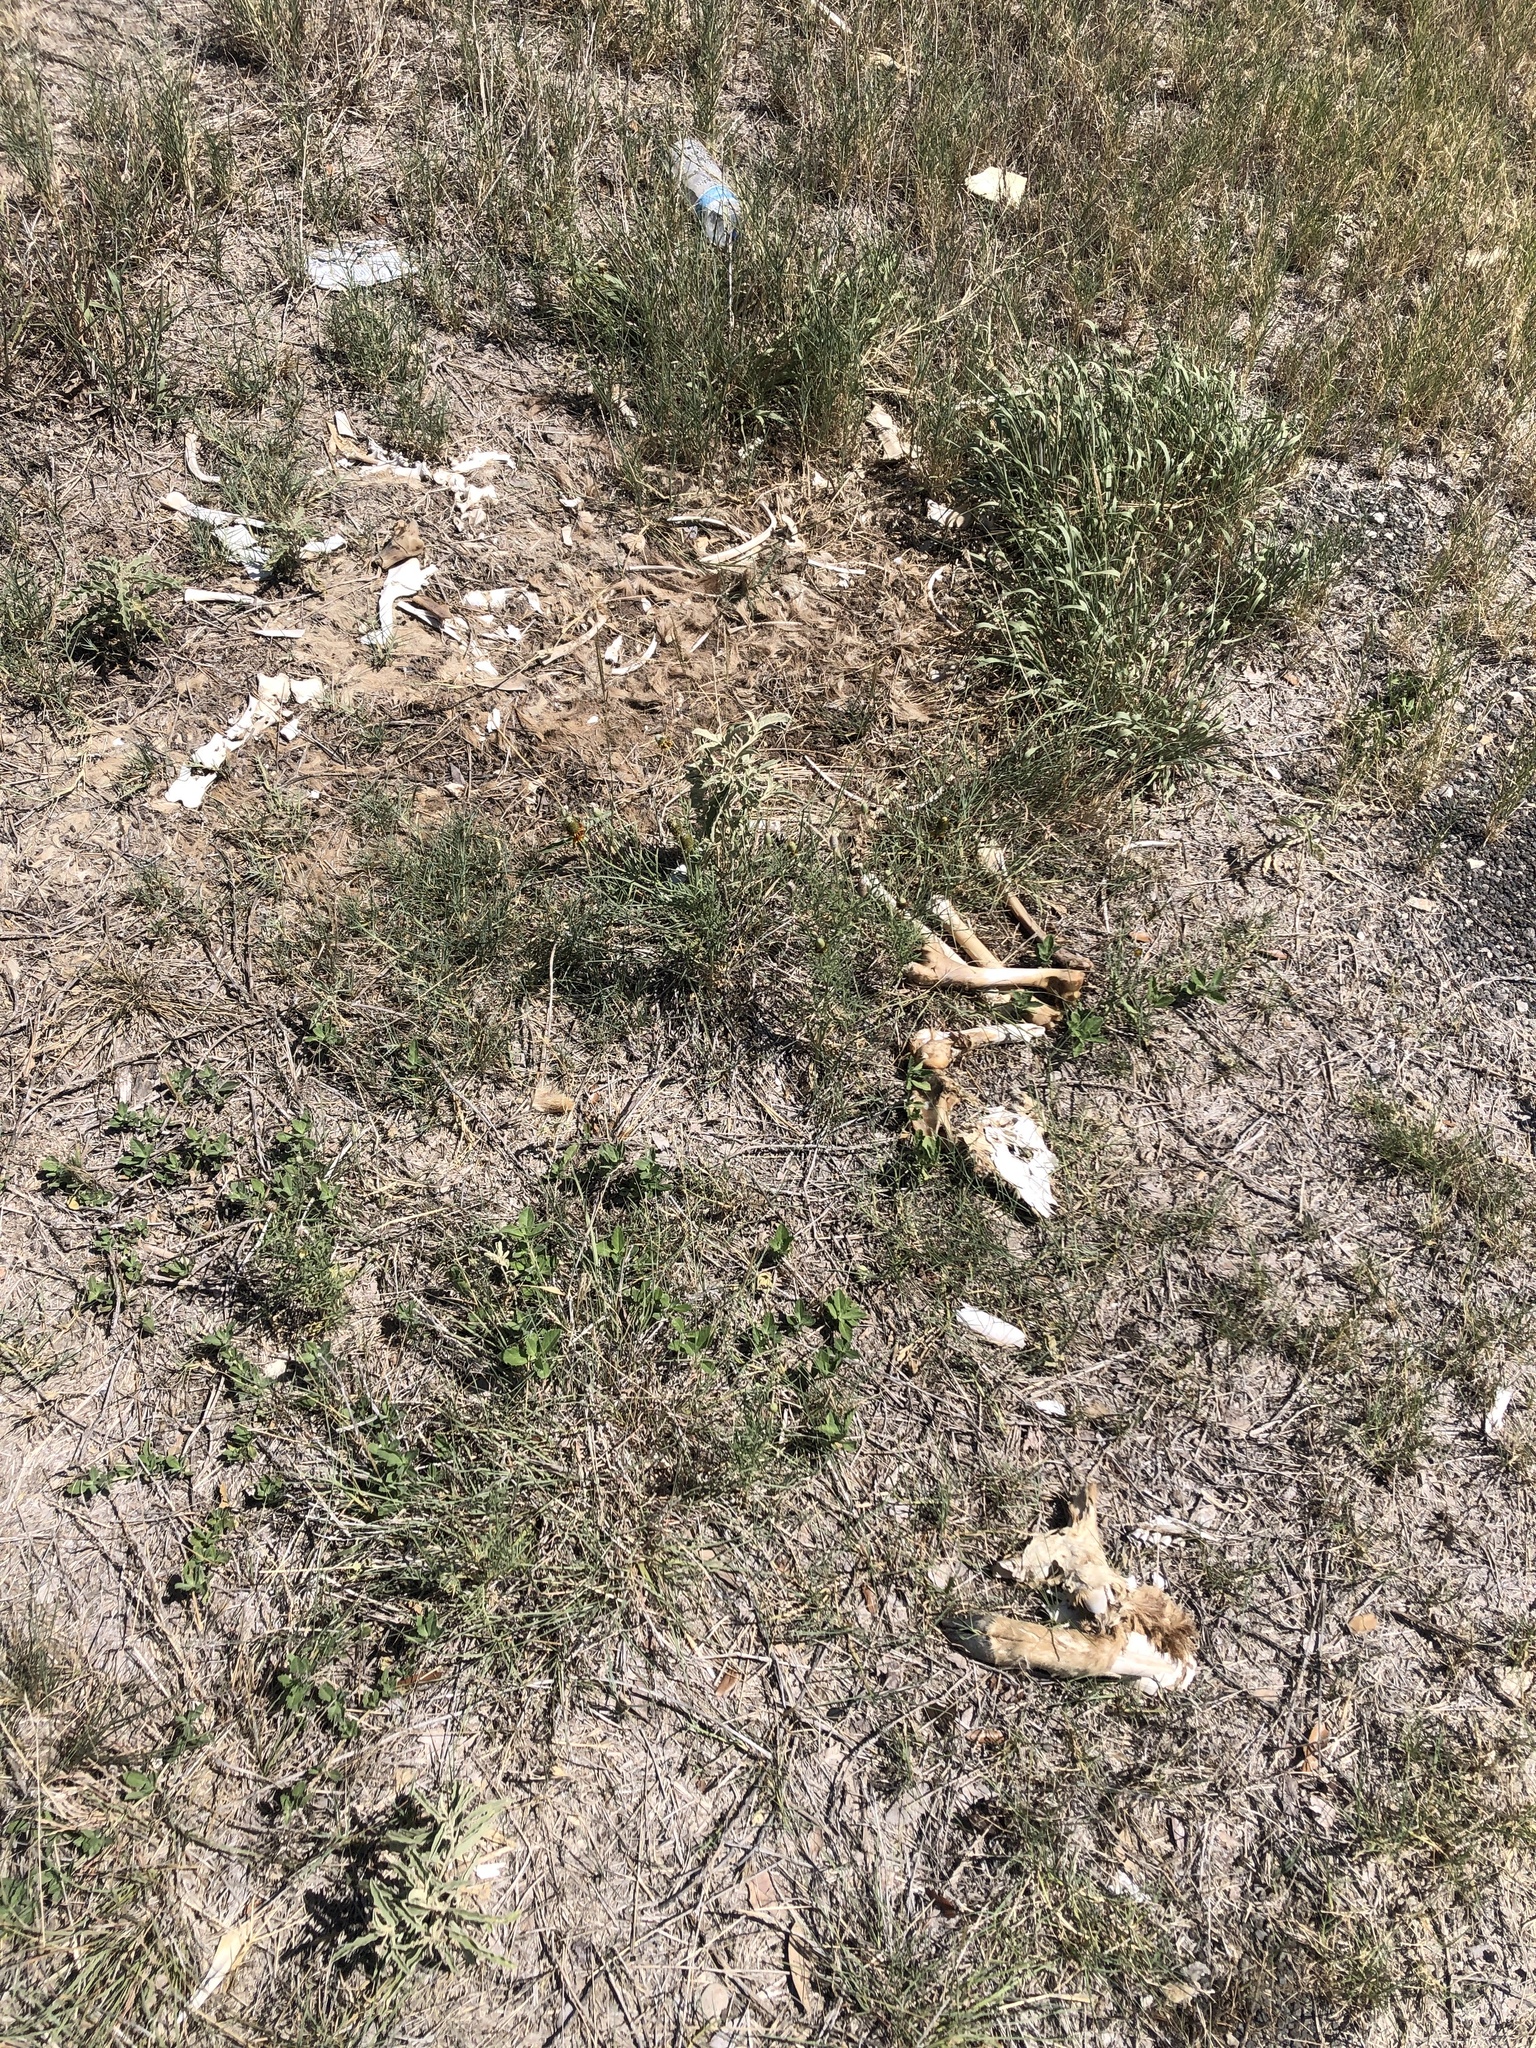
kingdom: Animalia
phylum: Chordata
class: Mammalia
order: Artiodactyla
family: Cervidae
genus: Odocoileus
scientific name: Odocoileus virginianus
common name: White-tailed deer
